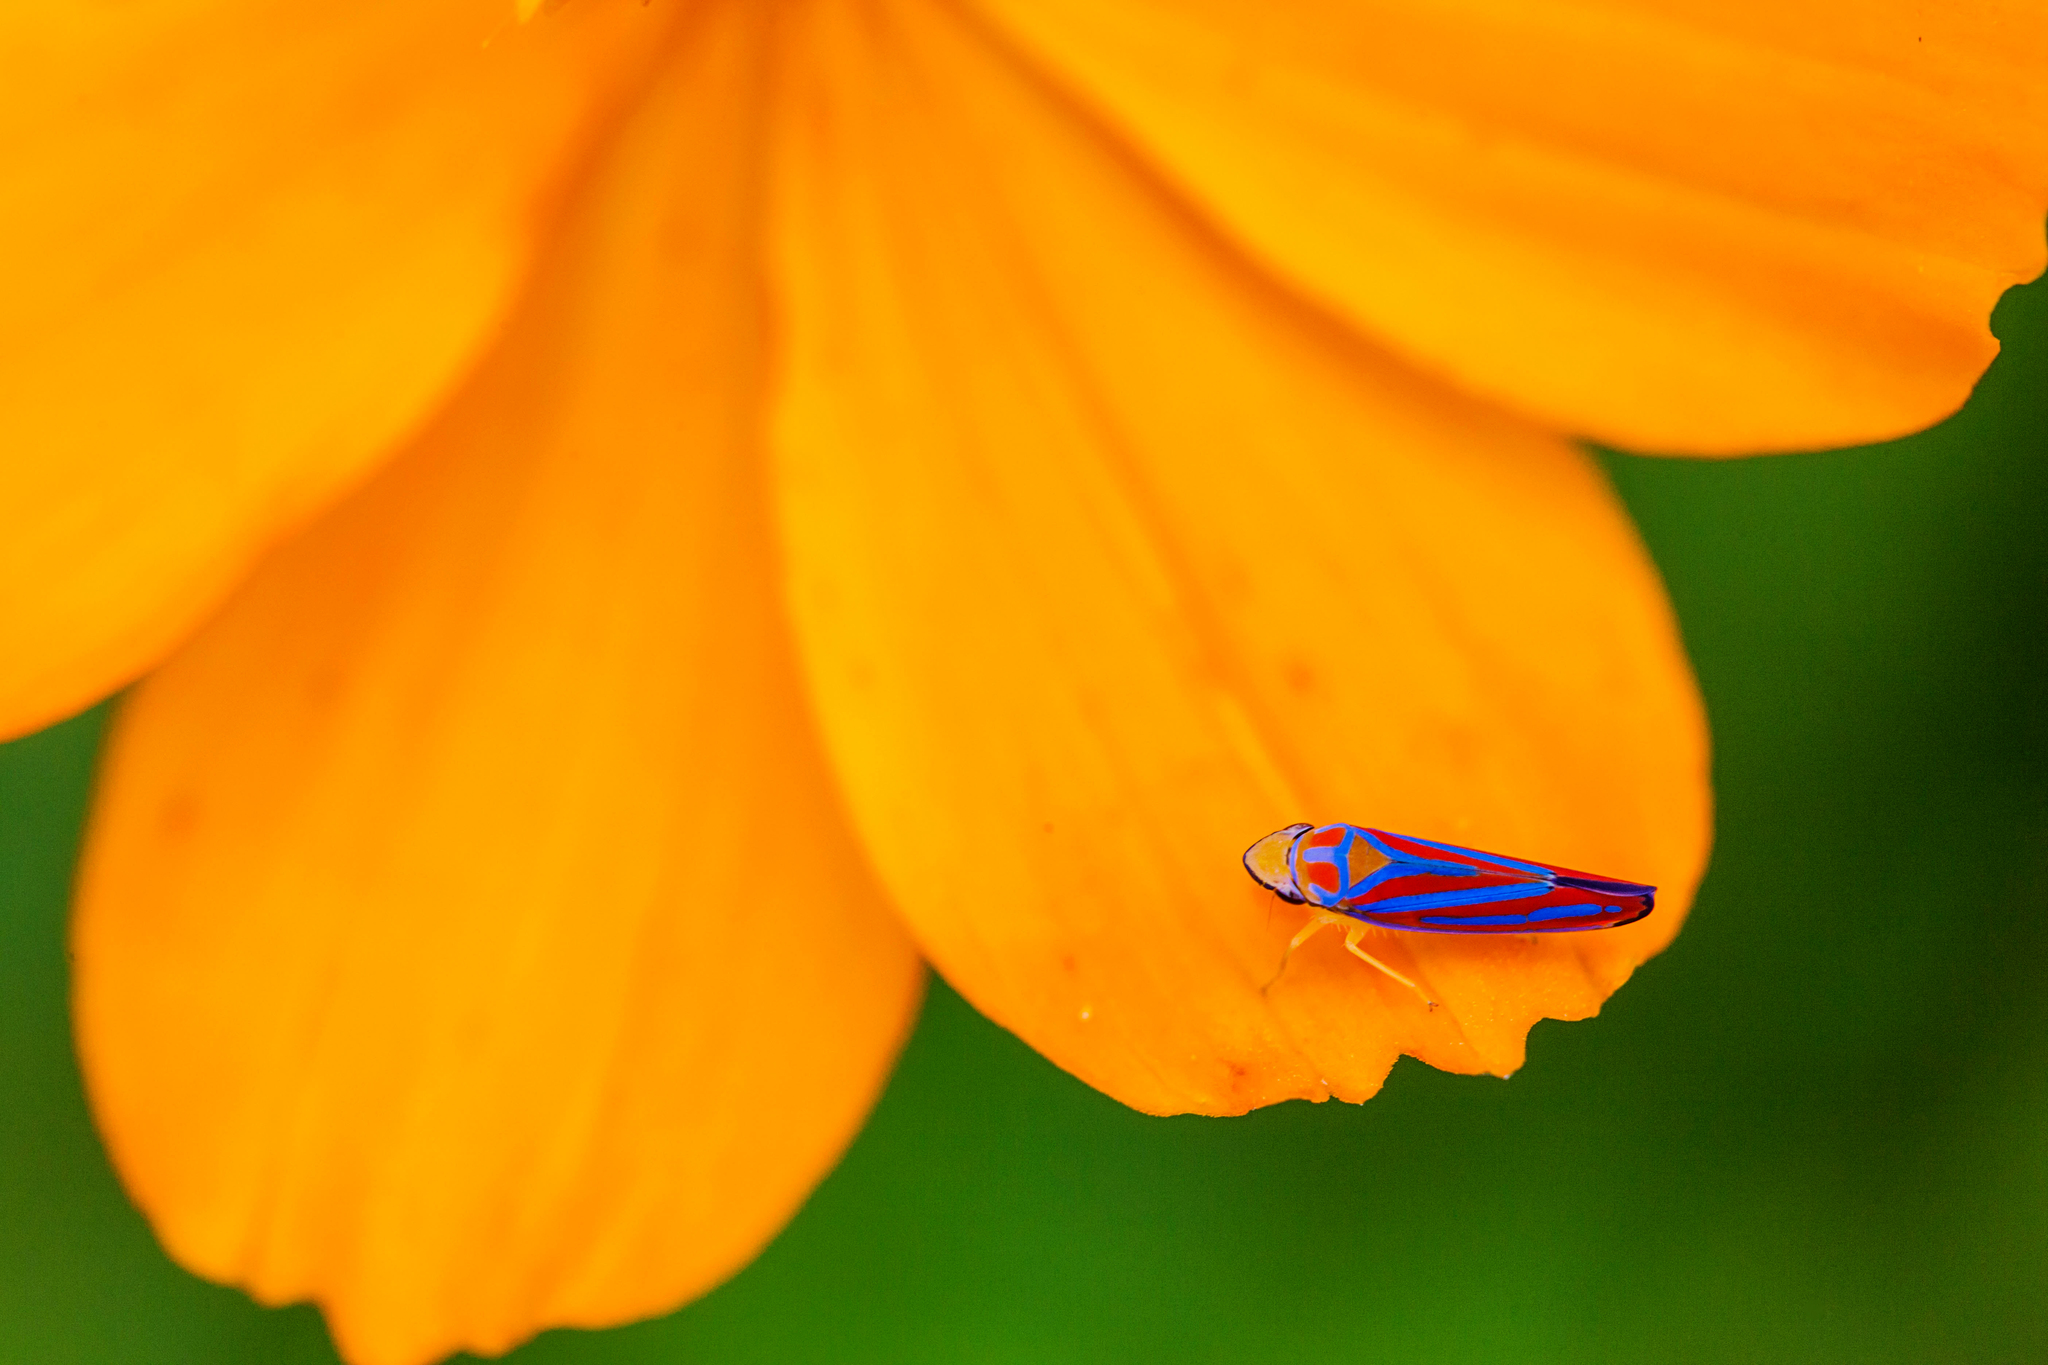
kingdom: Animalia
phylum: Arthropoda
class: Insecta
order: Hemiptera
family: Cicadellidae
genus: Graphocephala
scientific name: Graphocephala
